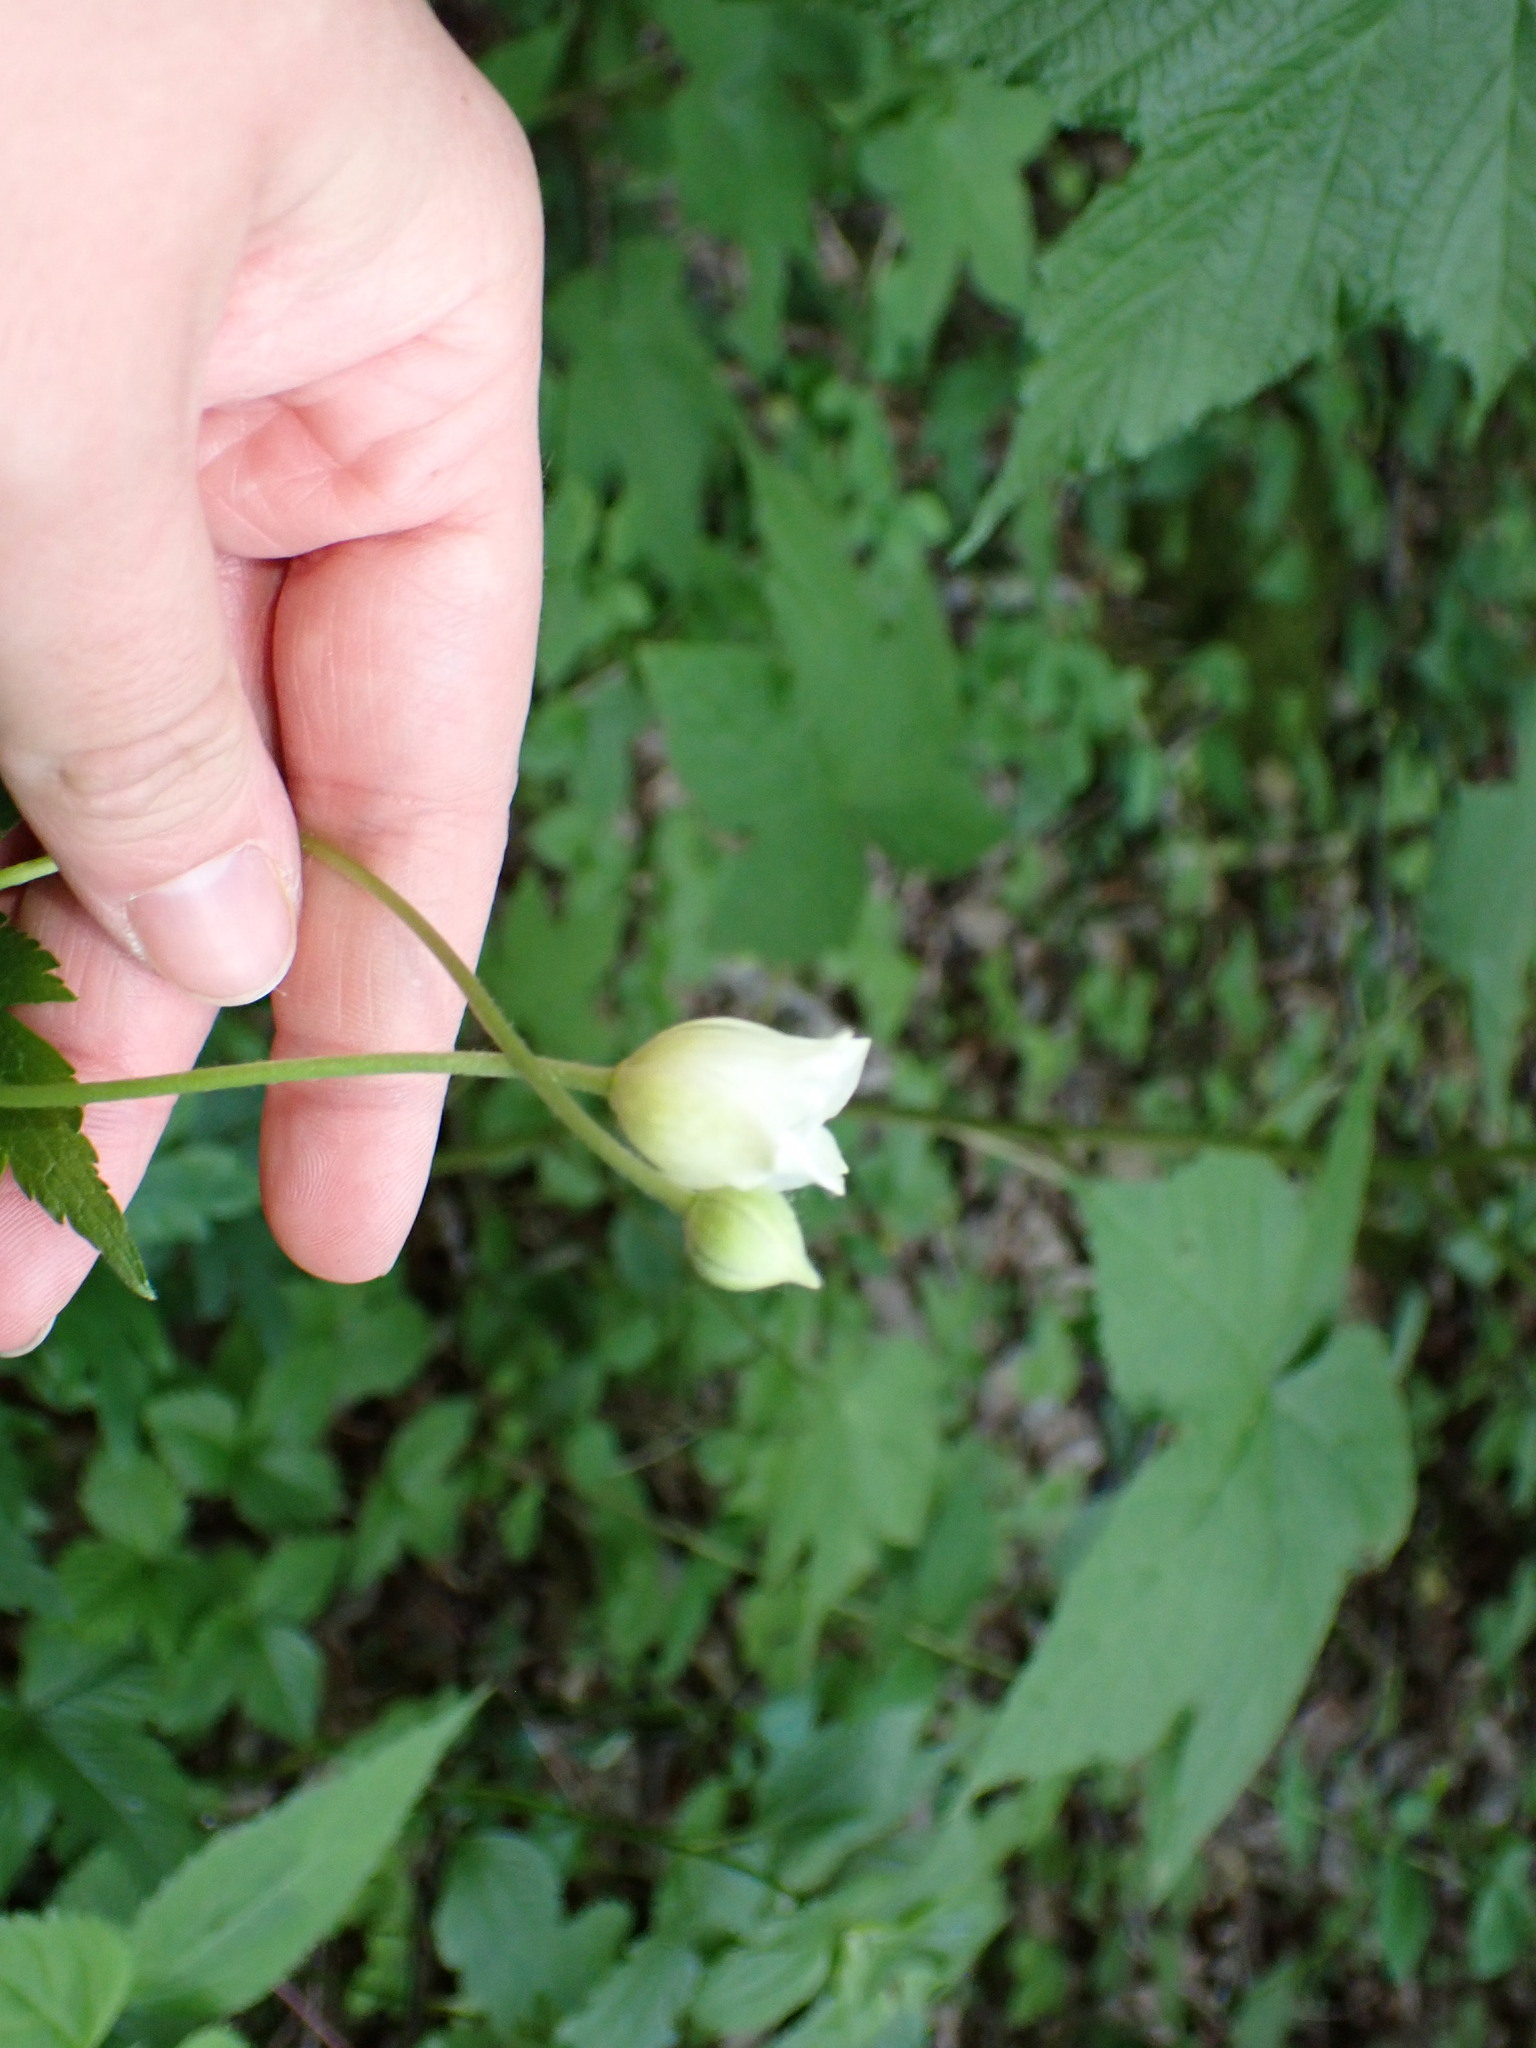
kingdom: Plantae
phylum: Tracheophyta
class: Magnoliopsida
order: Ranunculales
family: Ranunculaceae
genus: Anemone
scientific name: Anemone virginiana
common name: Tall anemone
